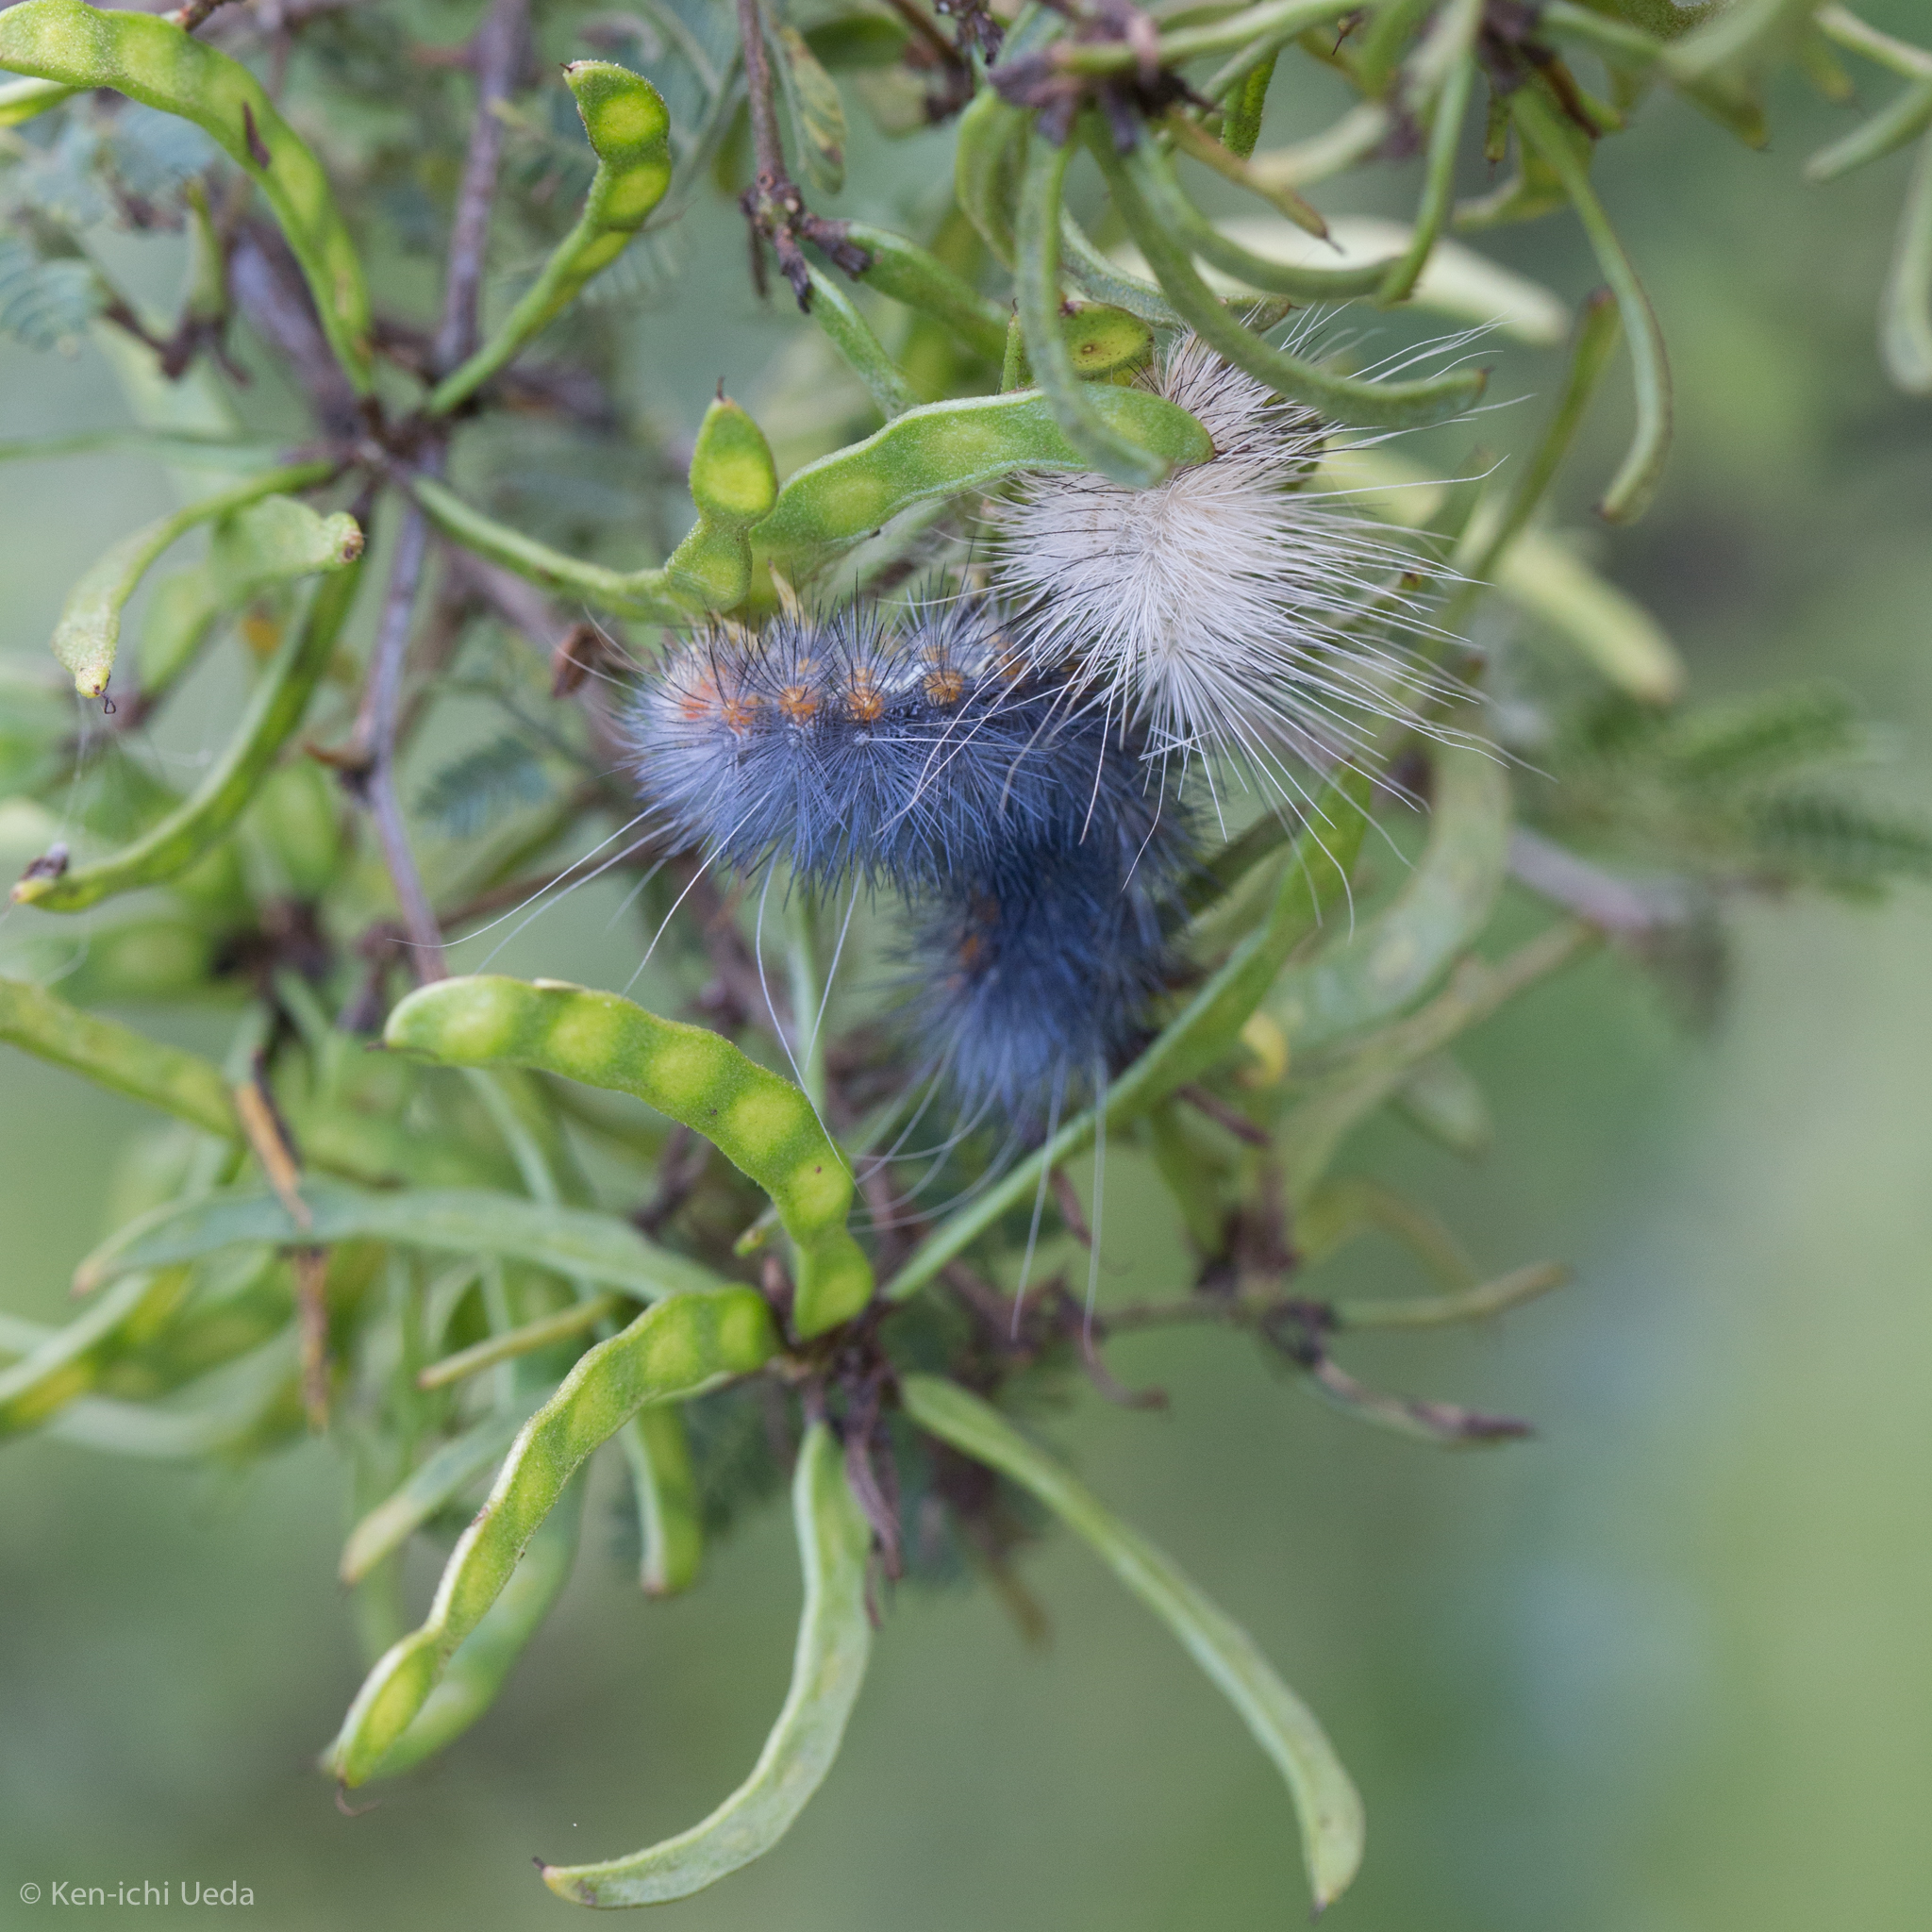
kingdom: Animalia
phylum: Arthropoda
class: Insecta
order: Lepidoptera
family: Erebidae
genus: Hypercompe
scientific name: Hypercompe suffusa
